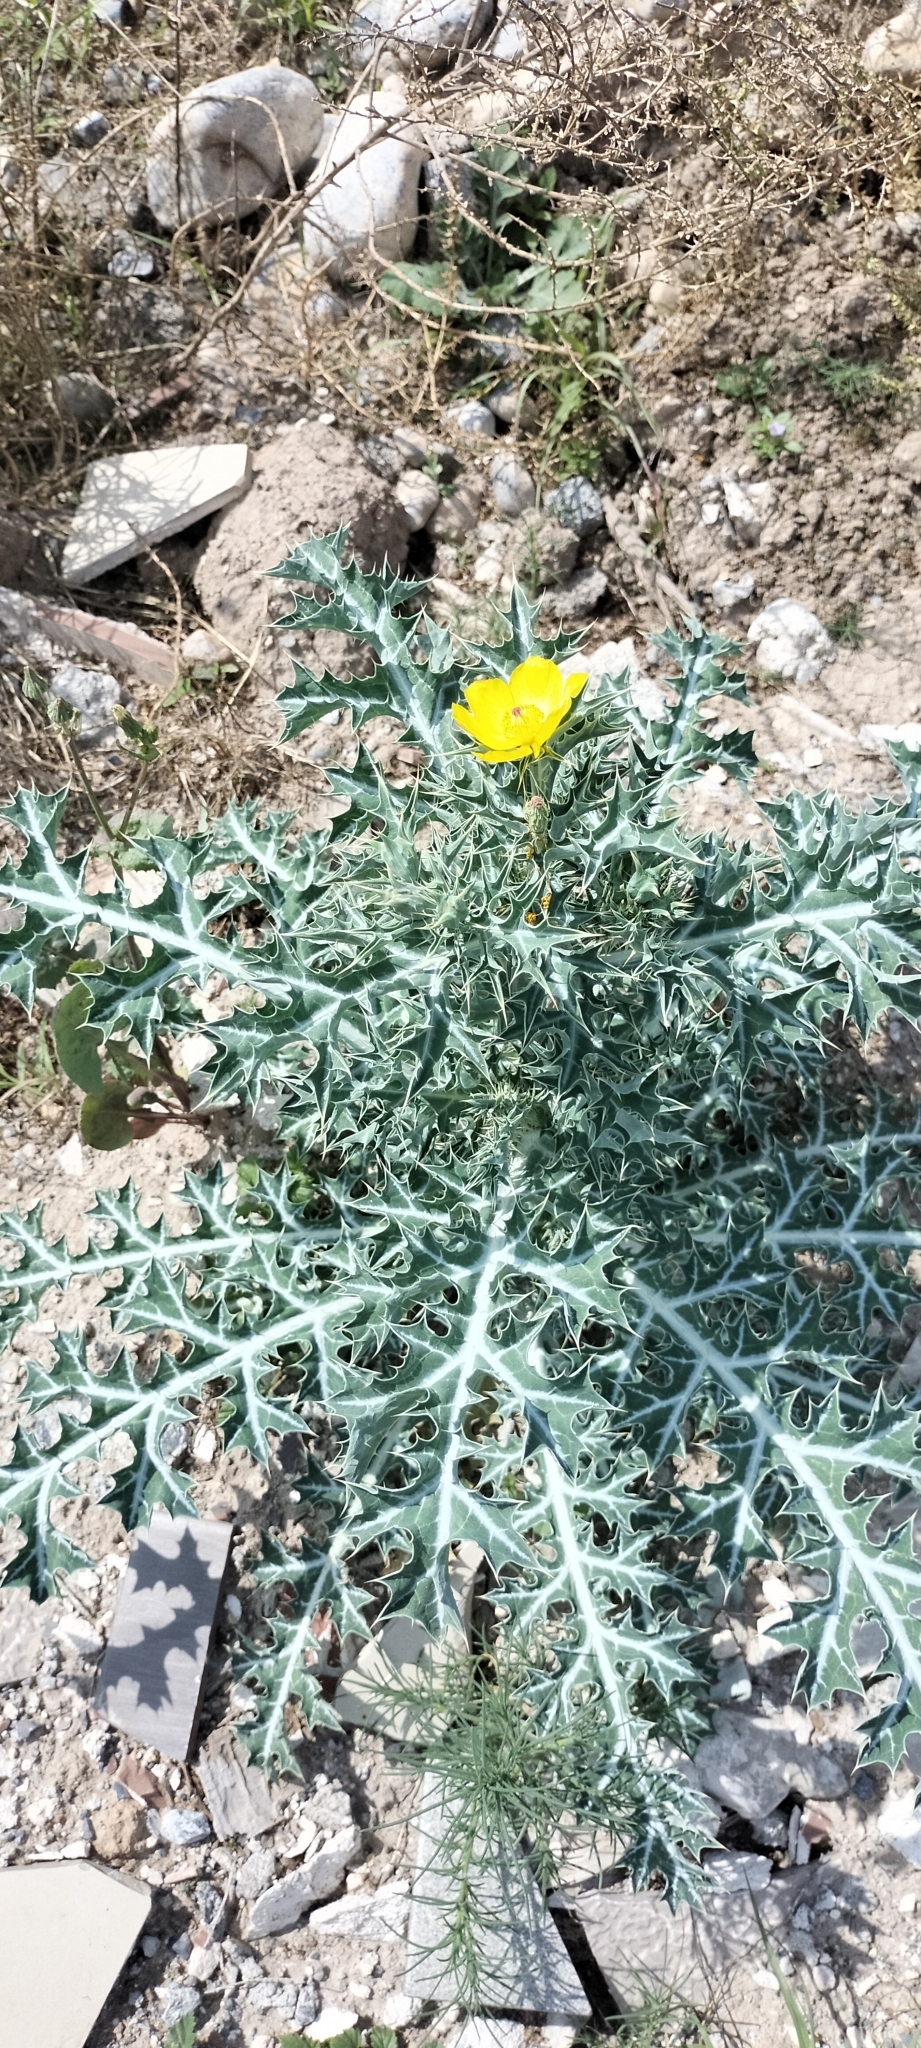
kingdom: Plantae
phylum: Tracheophyta
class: Magnoliopsida
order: Ranunculales
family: Papaveraceae
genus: Argemone
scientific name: Argemone mexicana
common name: Mexican poppy
